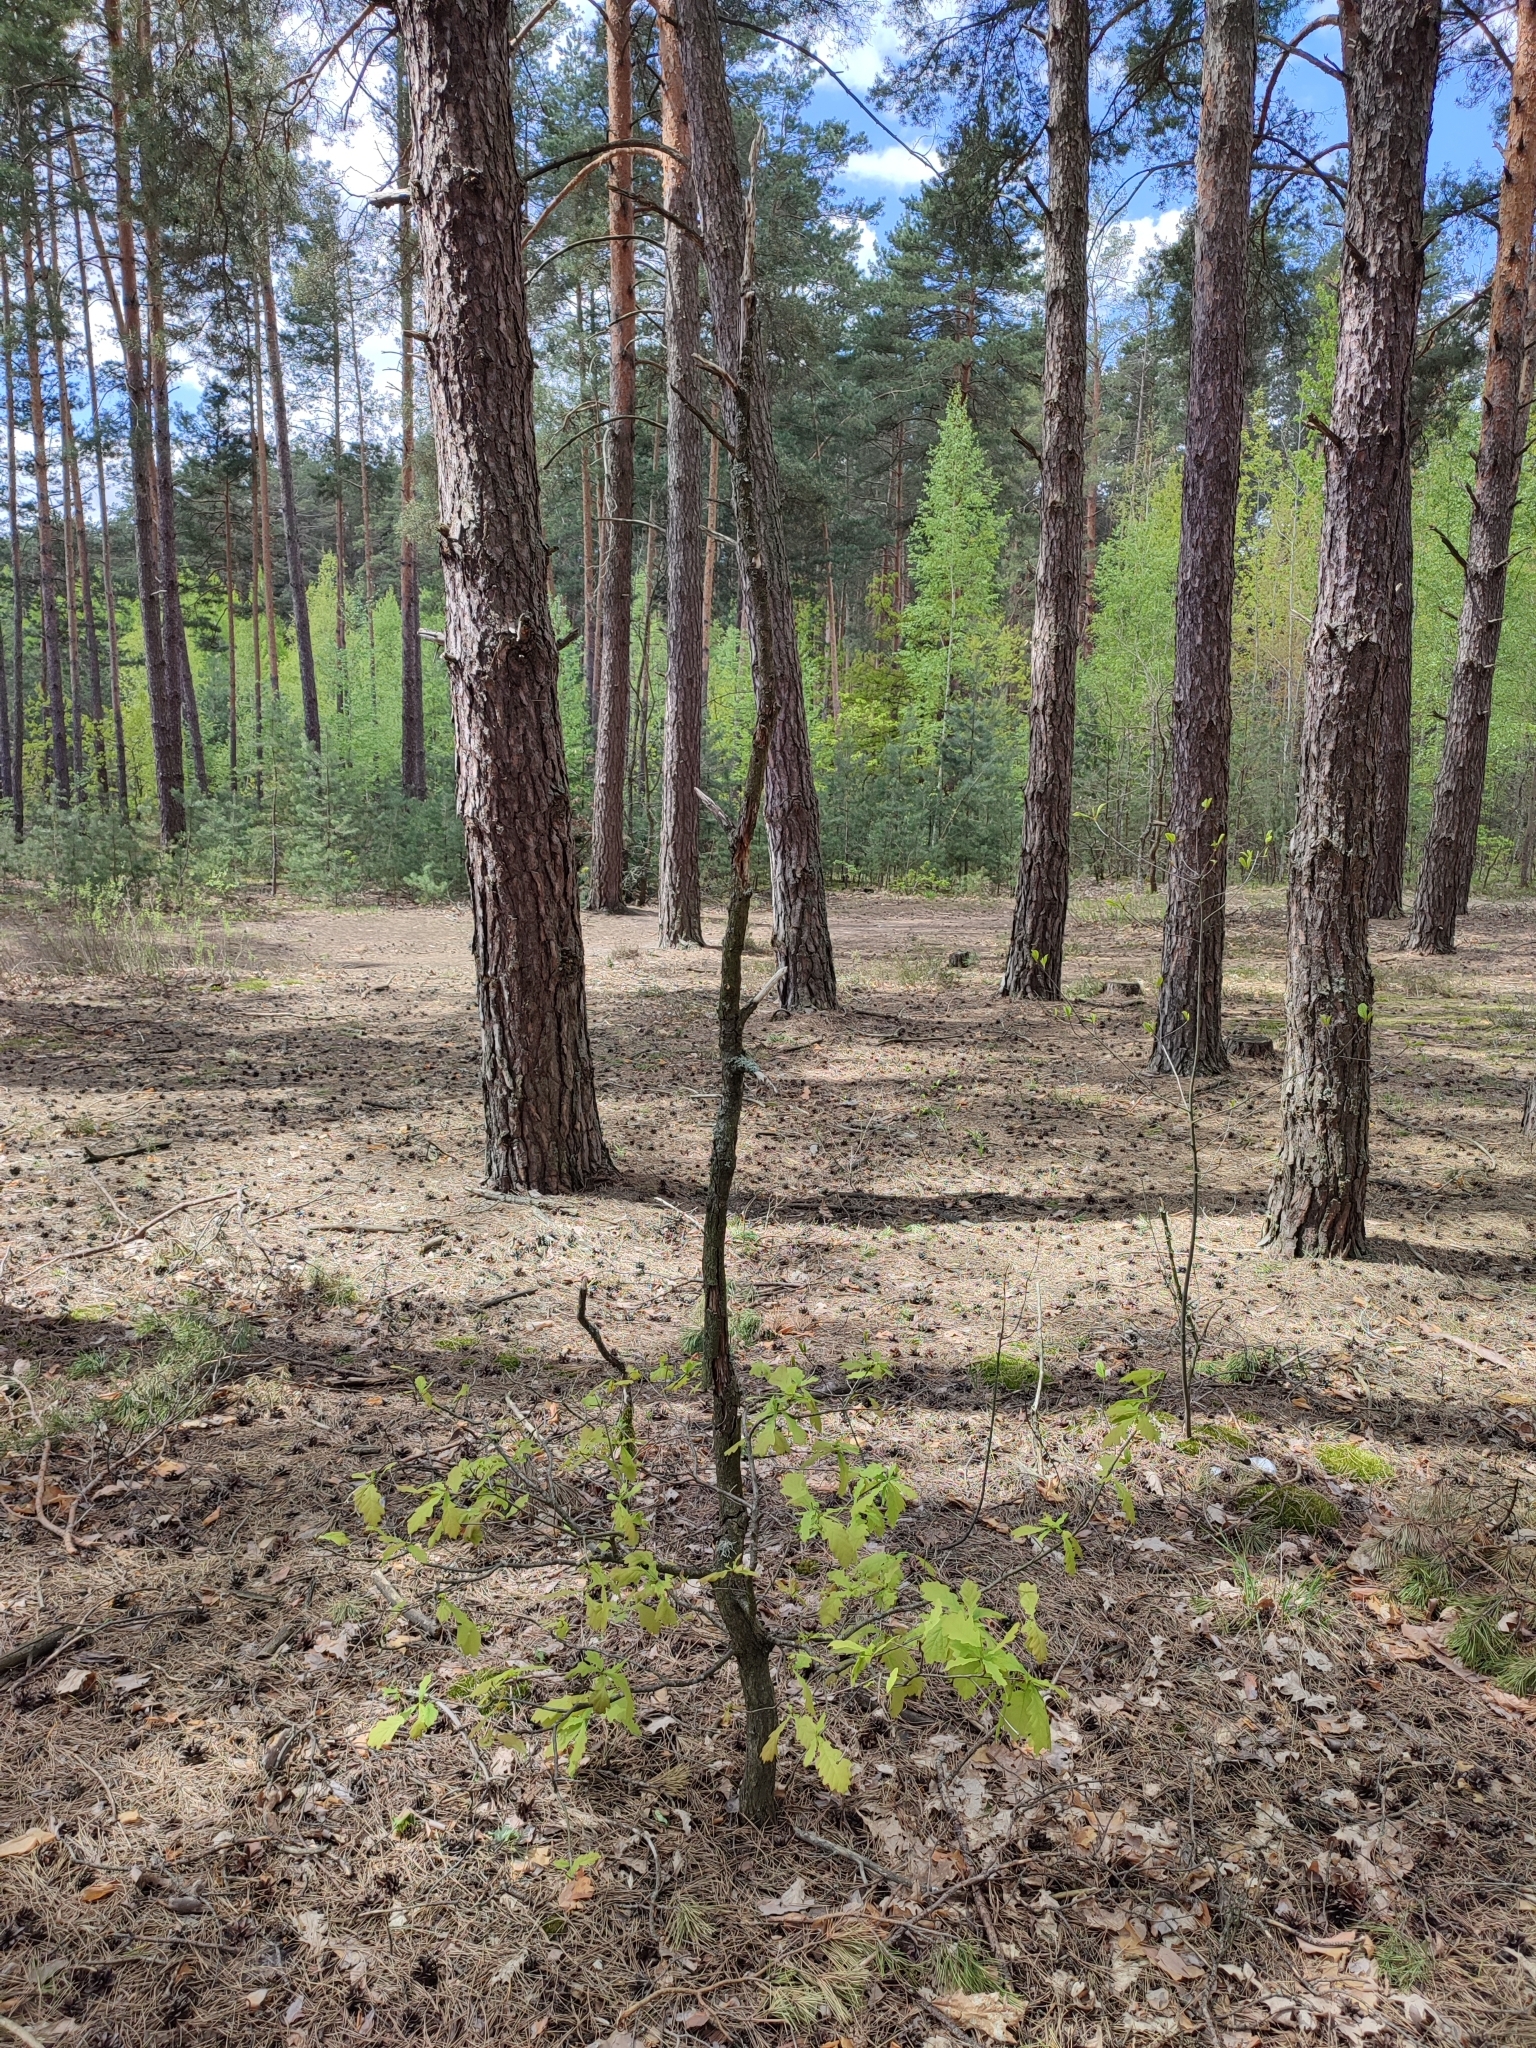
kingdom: Plantae
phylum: Tracheophyta
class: Magnoliopsida
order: Fagales
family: Fagaceae
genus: Quercus
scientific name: Quercus robur
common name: Pedunculate oak
